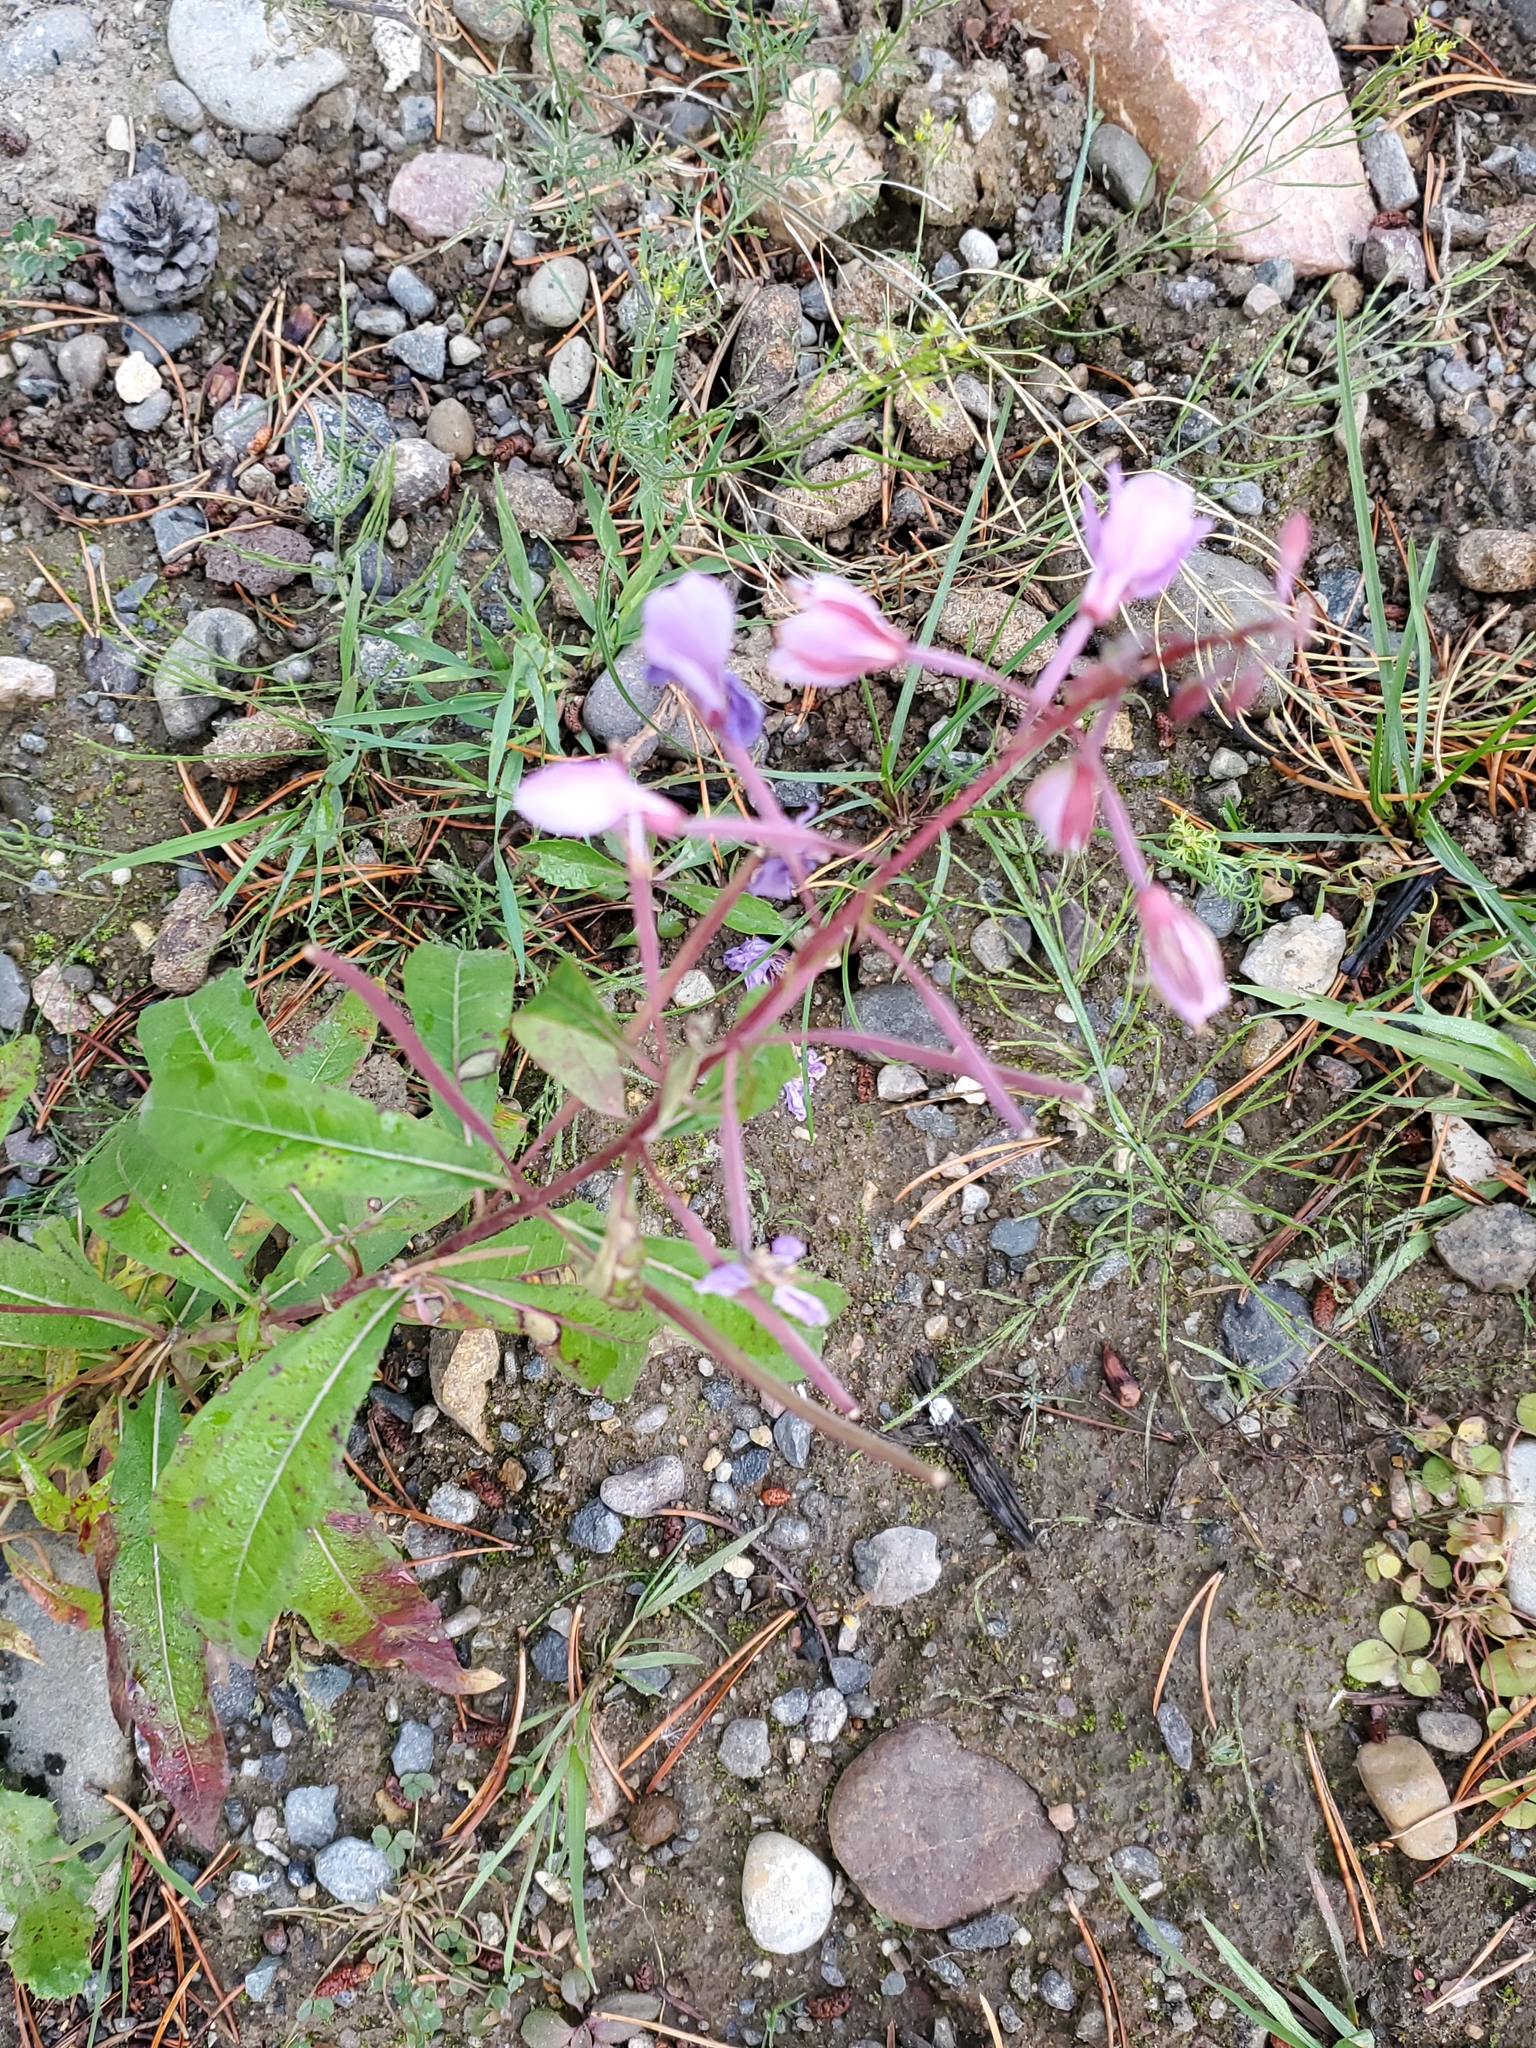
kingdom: Plantae
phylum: Tracheophyta
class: Magnoliopsida
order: Myrtales
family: Onagraceae
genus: Chamaenerion
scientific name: Chamaenerion angustifolium
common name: Fireweed
